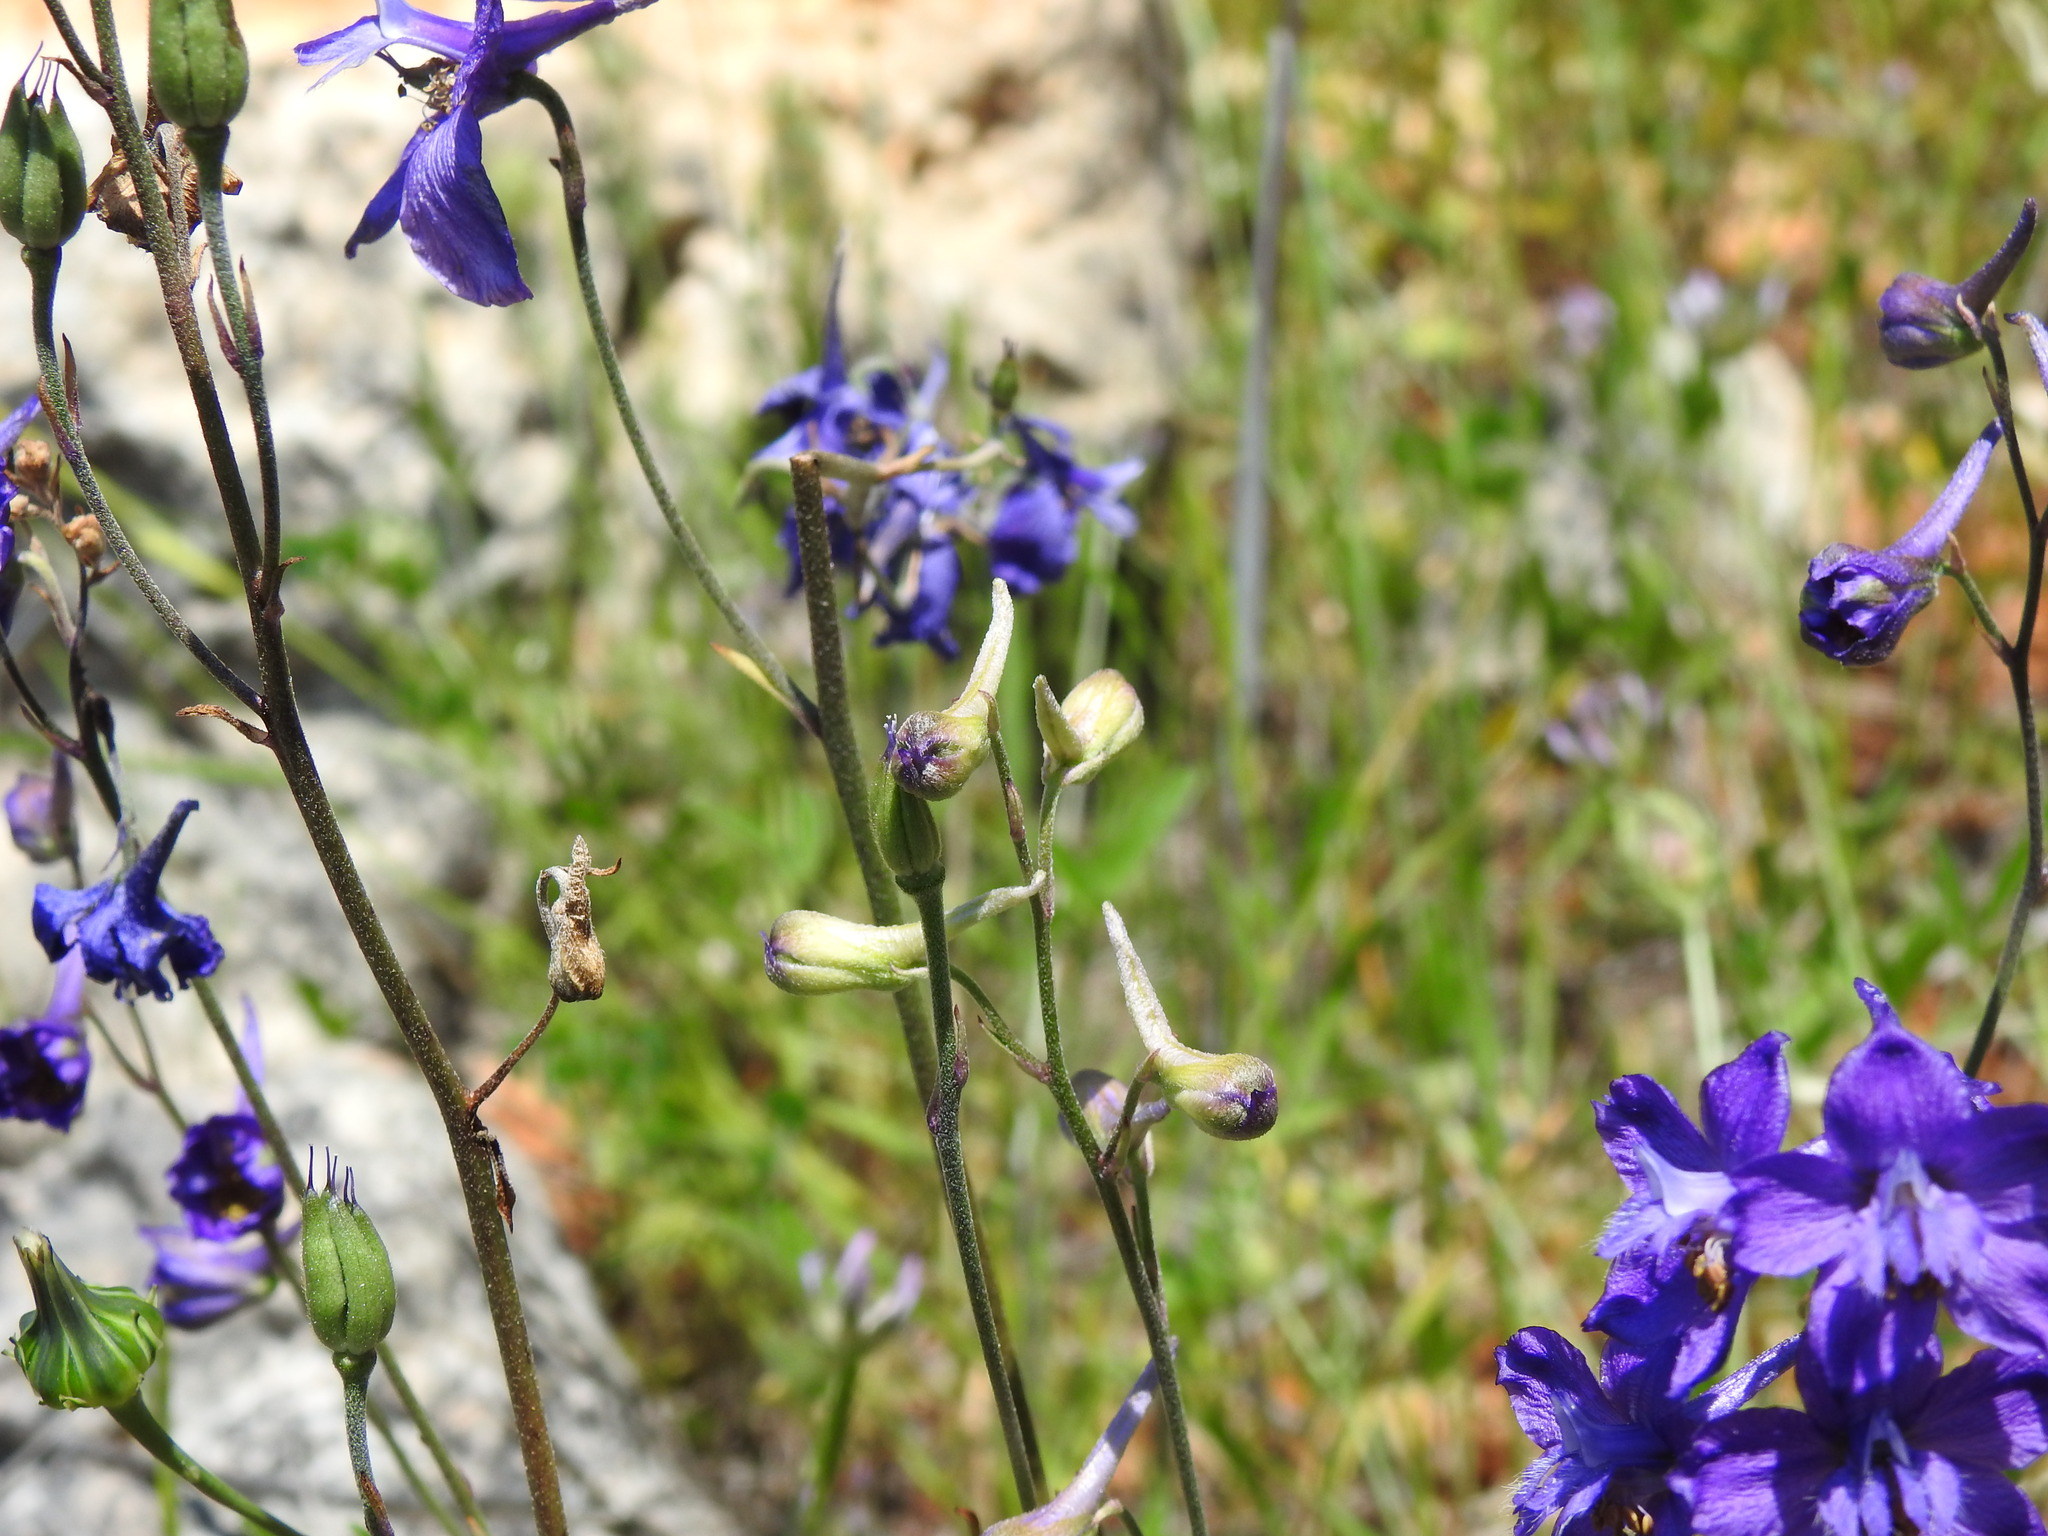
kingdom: Plantae
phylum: Tracheophyta
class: Magnoliopsida
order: Ranunculales
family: Ranunculaceae
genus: Delphinium
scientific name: Delphinium pentagynum
